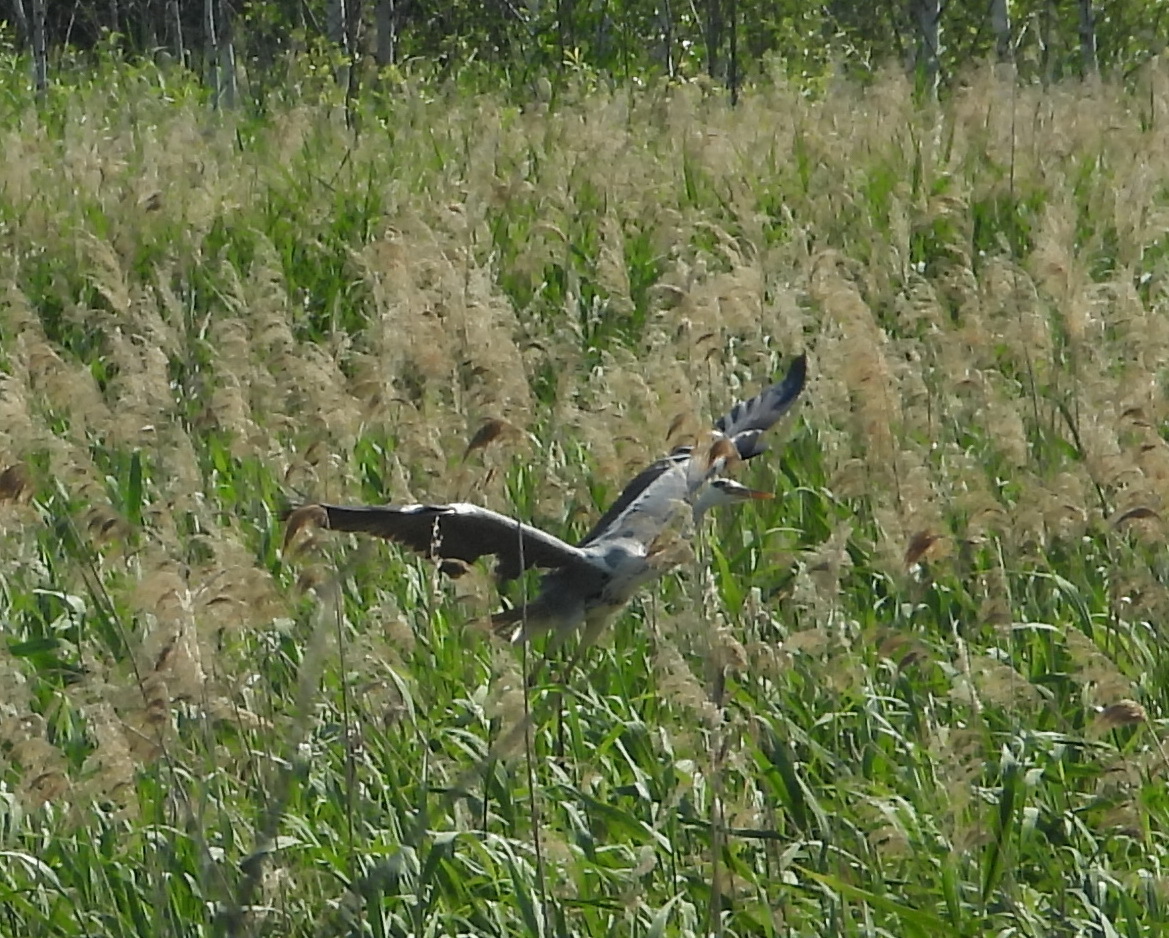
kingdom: Animalia
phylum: Chordata
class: Aves
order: Pelecaniformes
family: Ardeidae
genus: Ardea
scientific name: Ardea cinerea
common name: Grey heron
